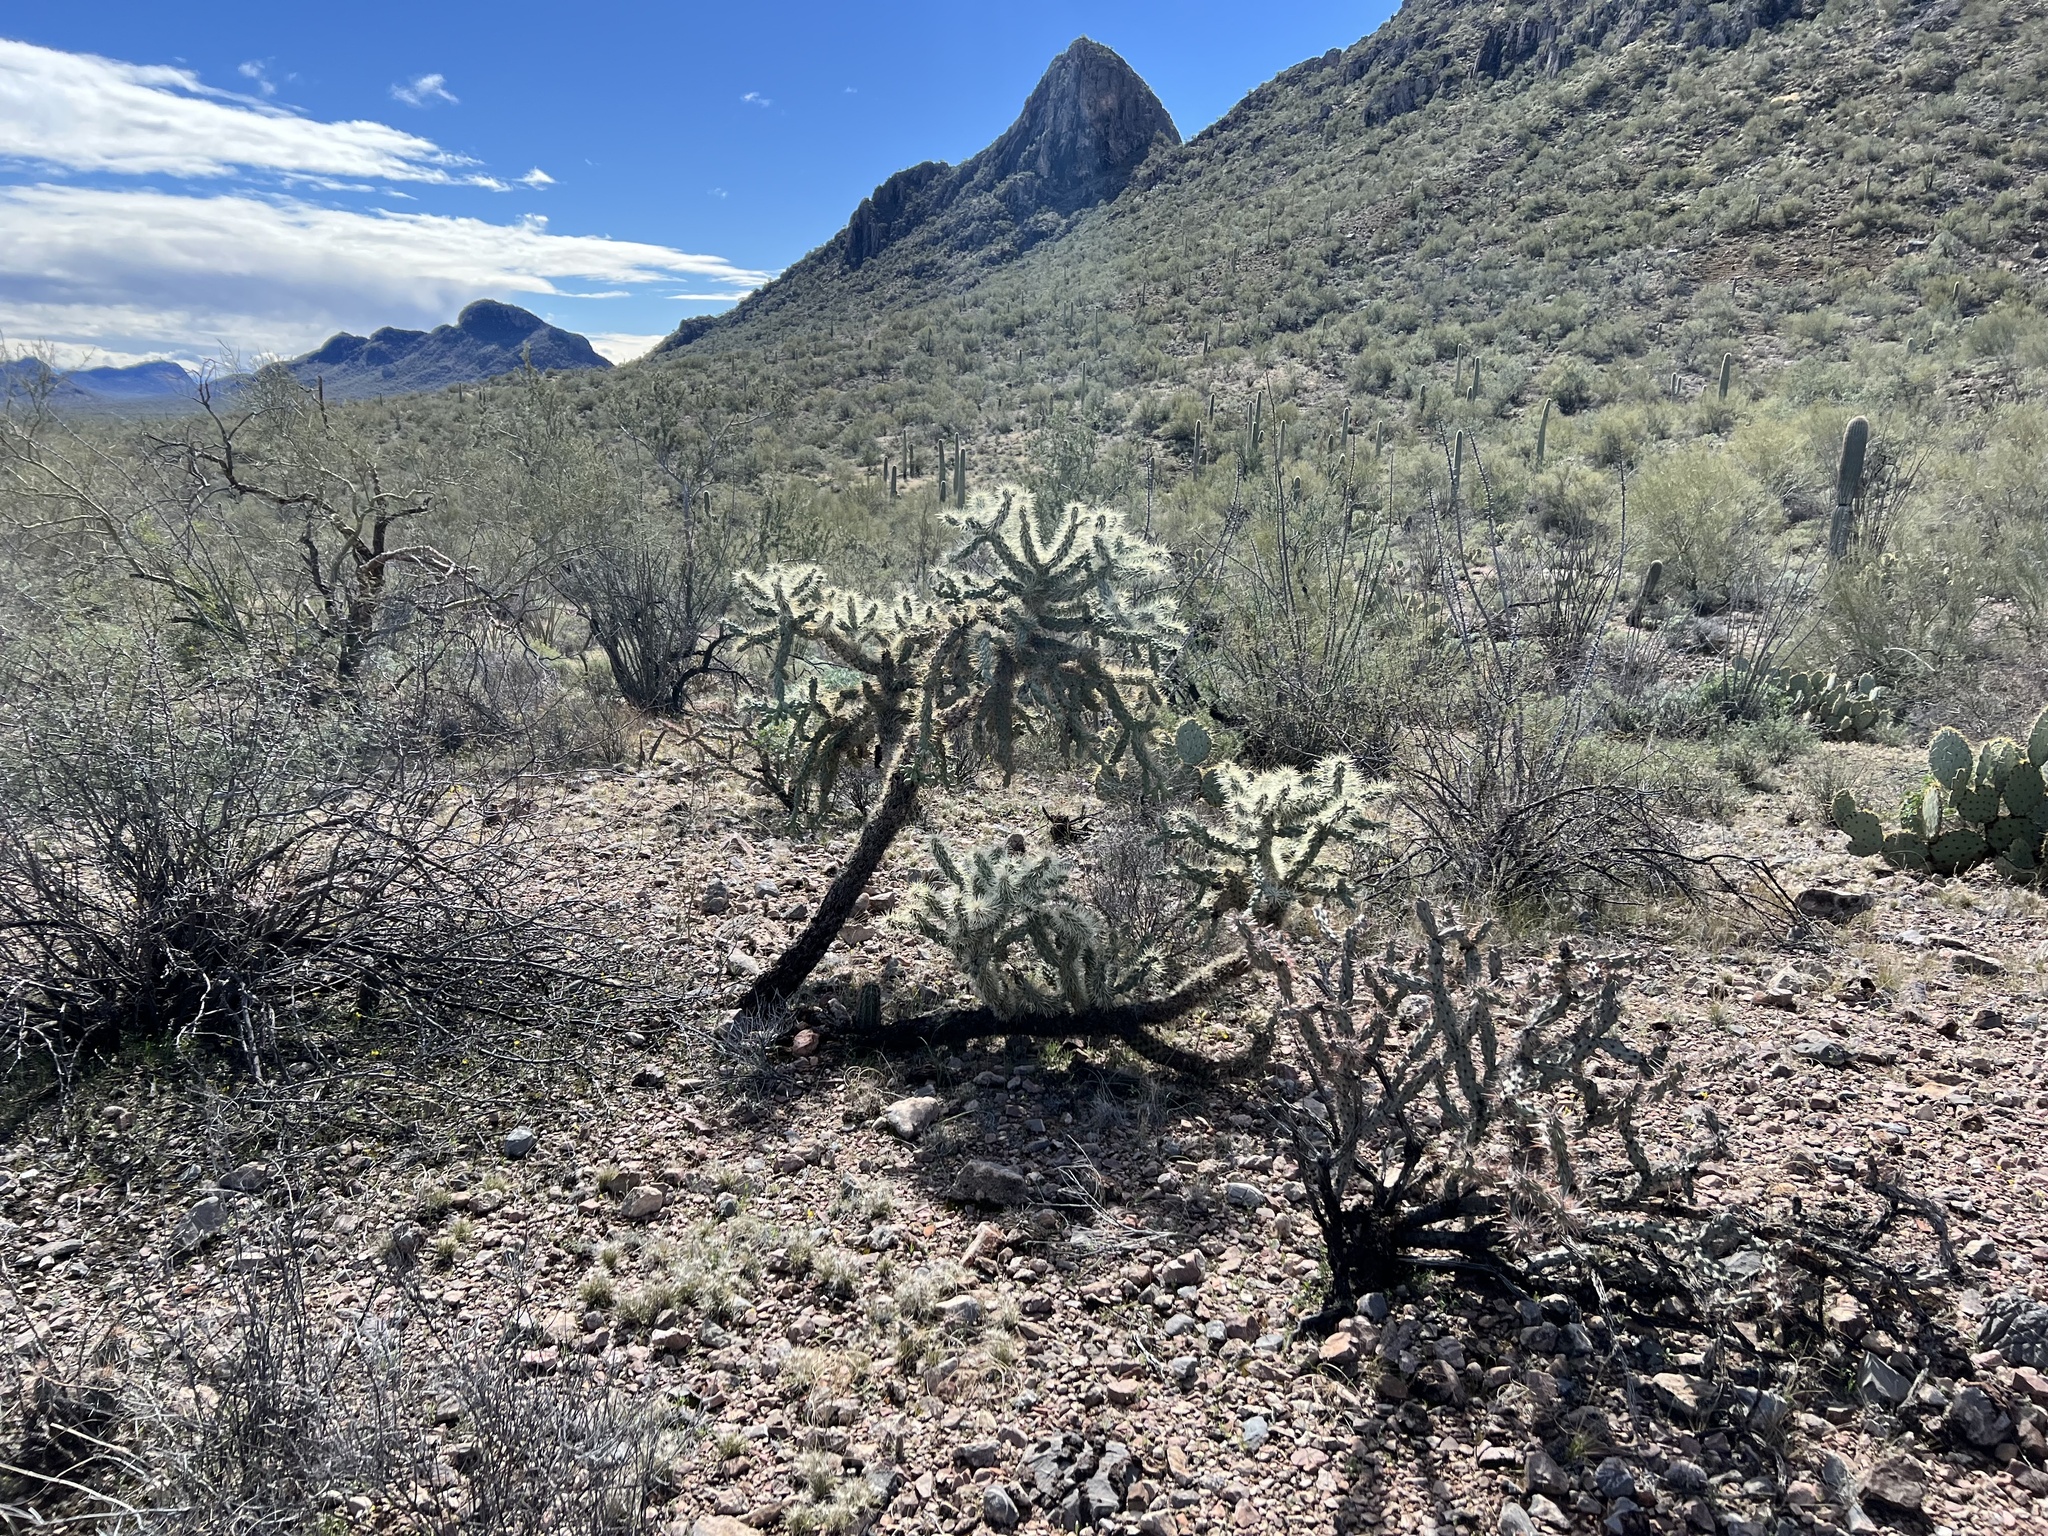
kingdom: Plantae
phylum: Tracheophyta
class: Magnoliopsida
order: Caryophyllales
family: Cactaceae
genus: Cylindropuntia
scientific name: Cylindropuntia fulgida
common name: Jumping cholla
